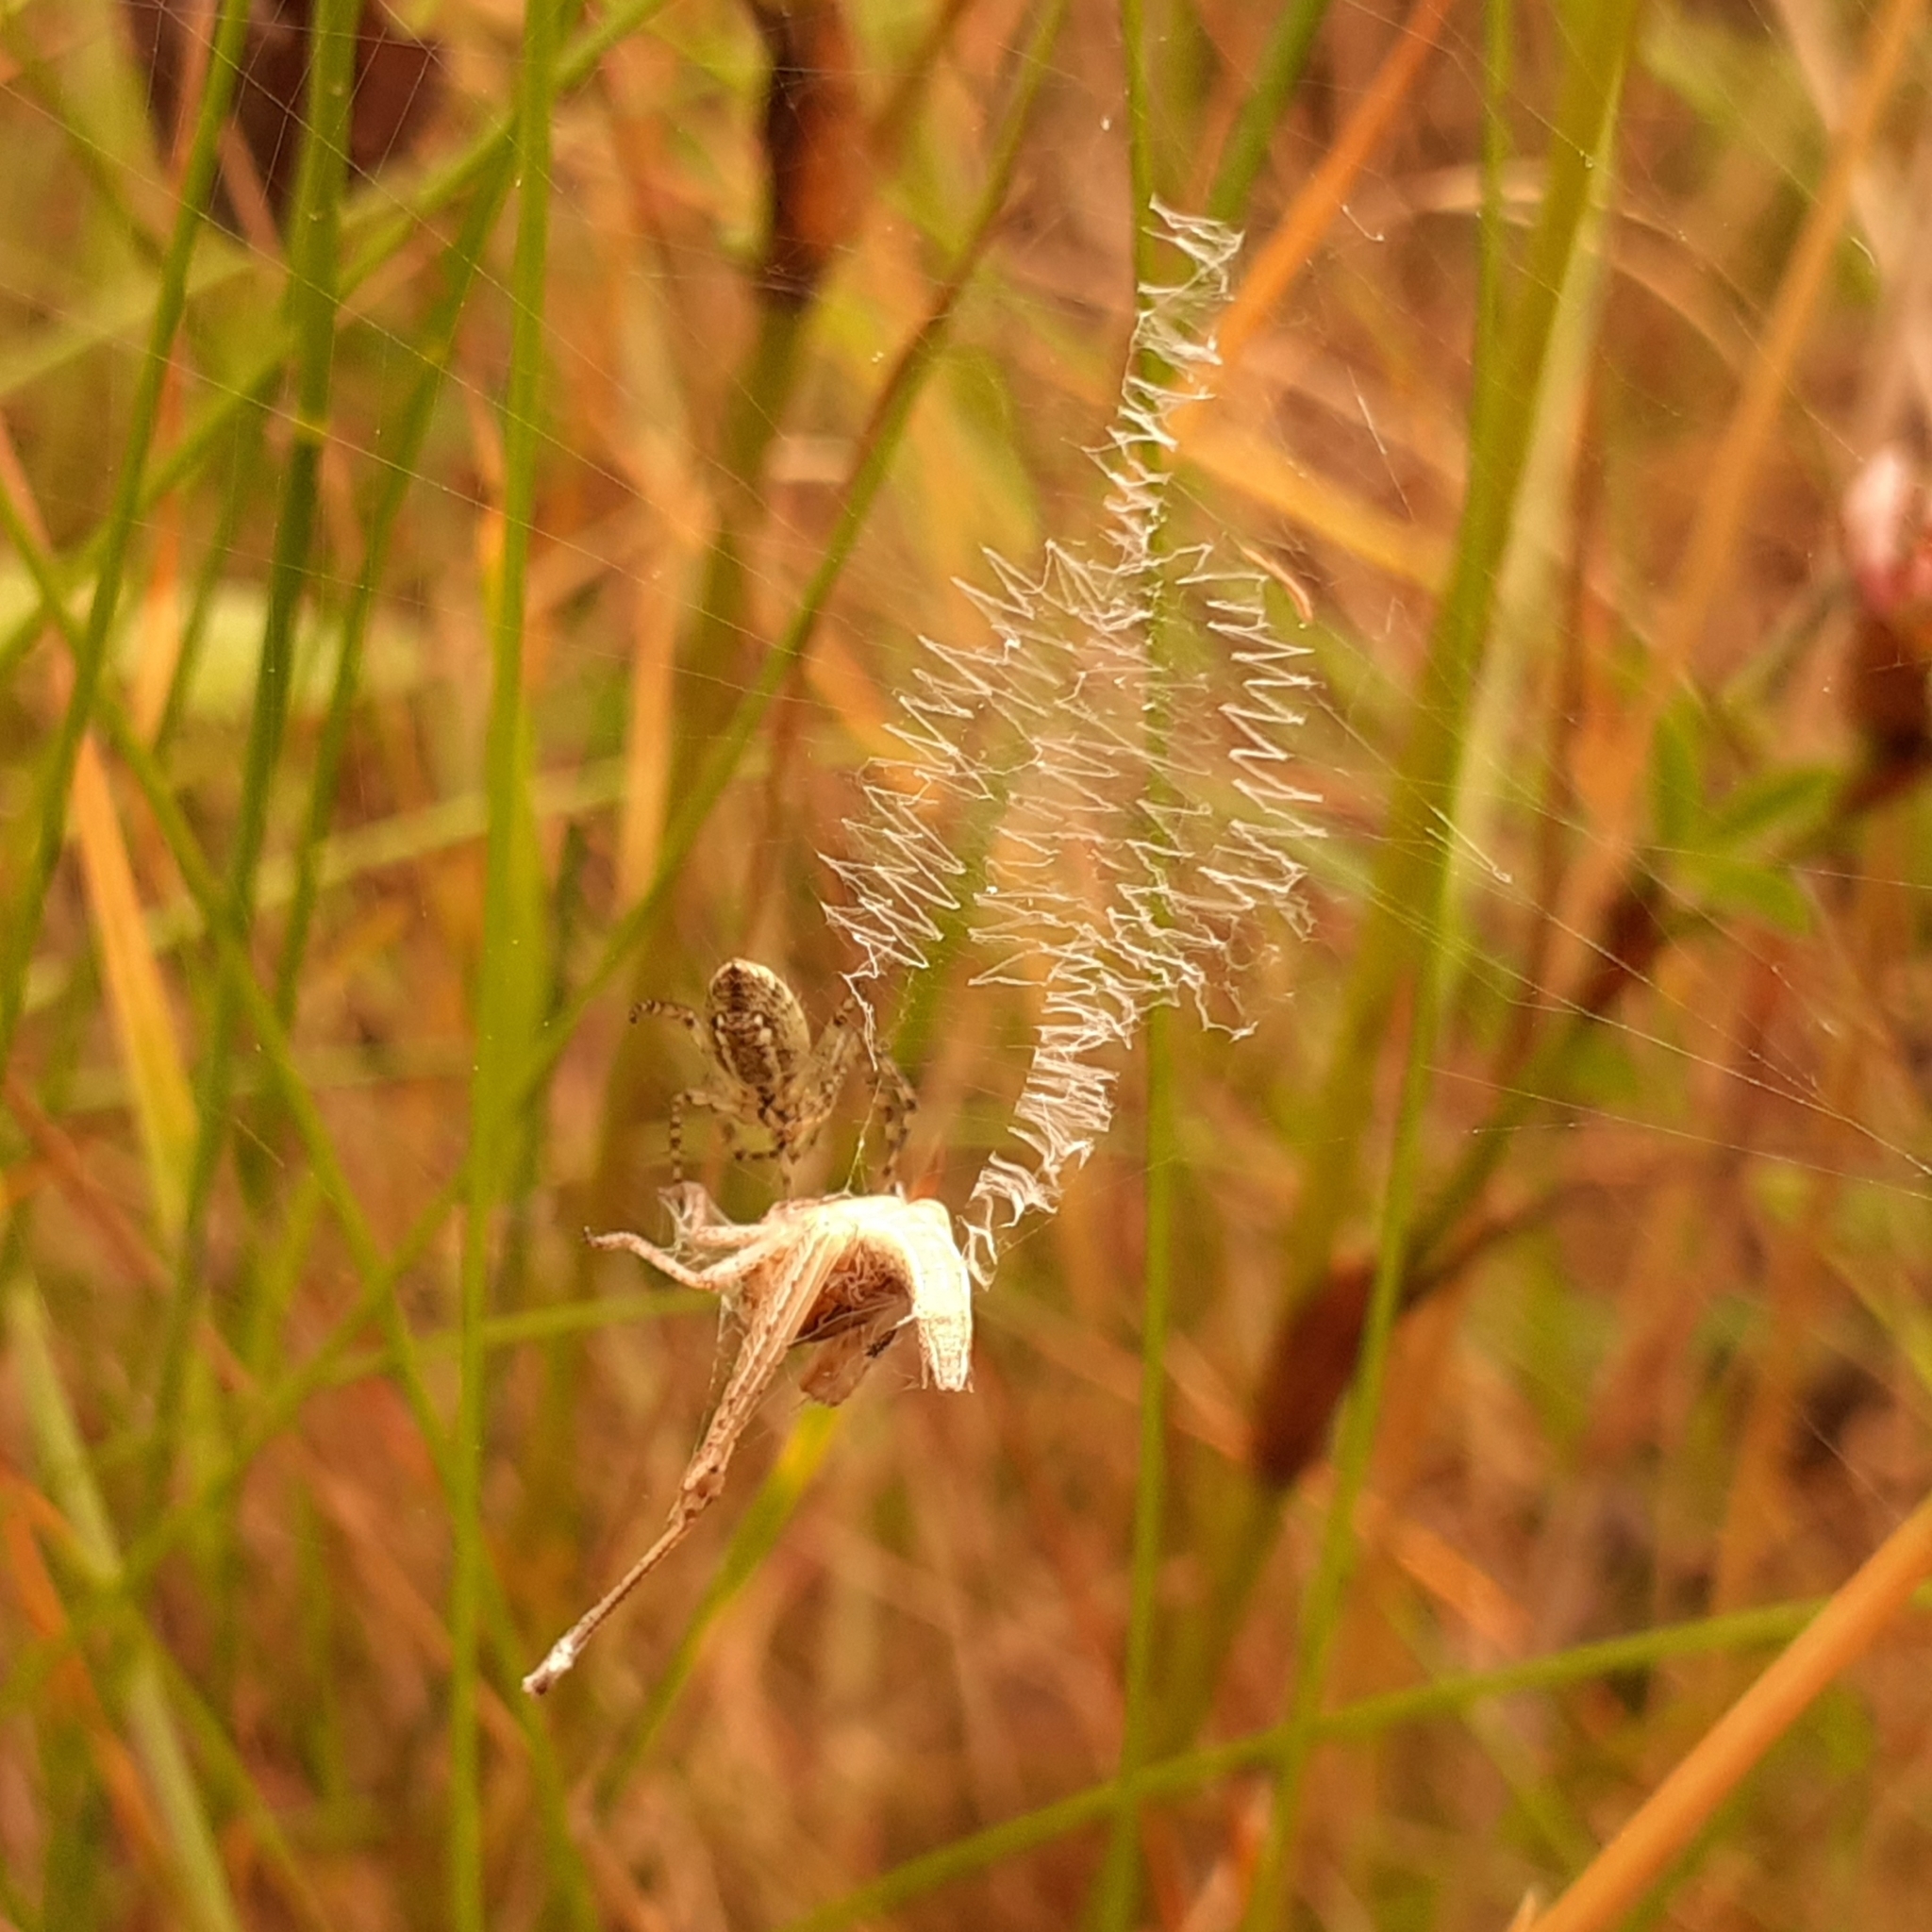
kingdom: Animalia
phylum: Arthropoda
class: Arachnida
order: Araneae
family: Araneidae
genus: Argiope
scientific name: Argiope bruennichi
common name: Wasp spider
